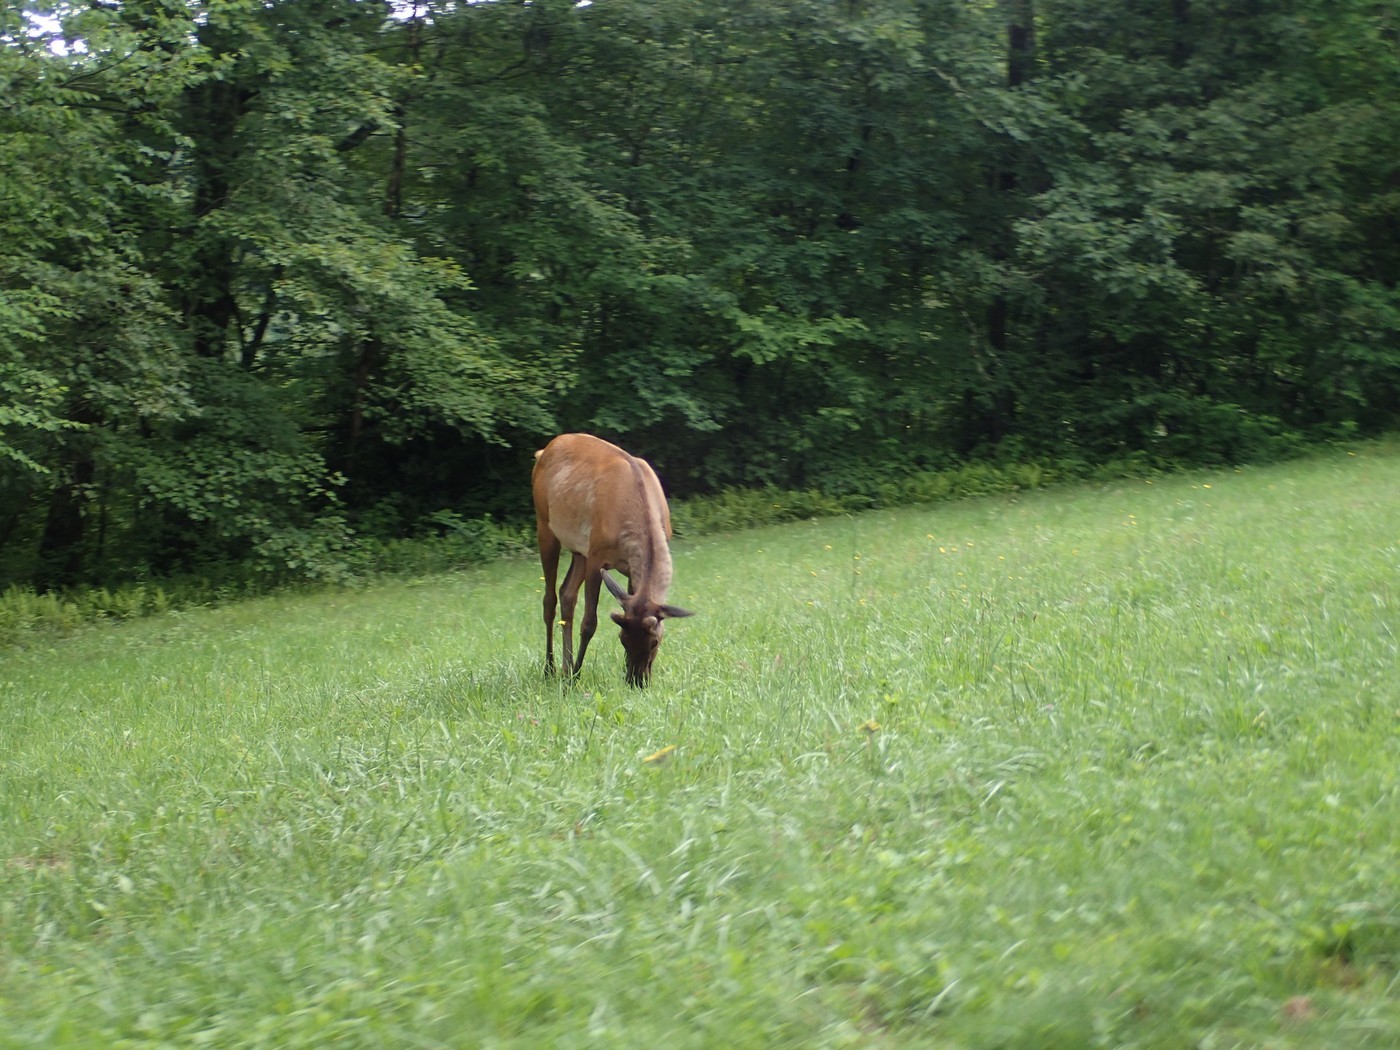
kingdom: Animalia
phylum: Chordata
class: Mammalia
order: Artiodactyla
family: Cervidae
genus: Cervus
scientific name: Cervus elaphus
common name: Red deer
